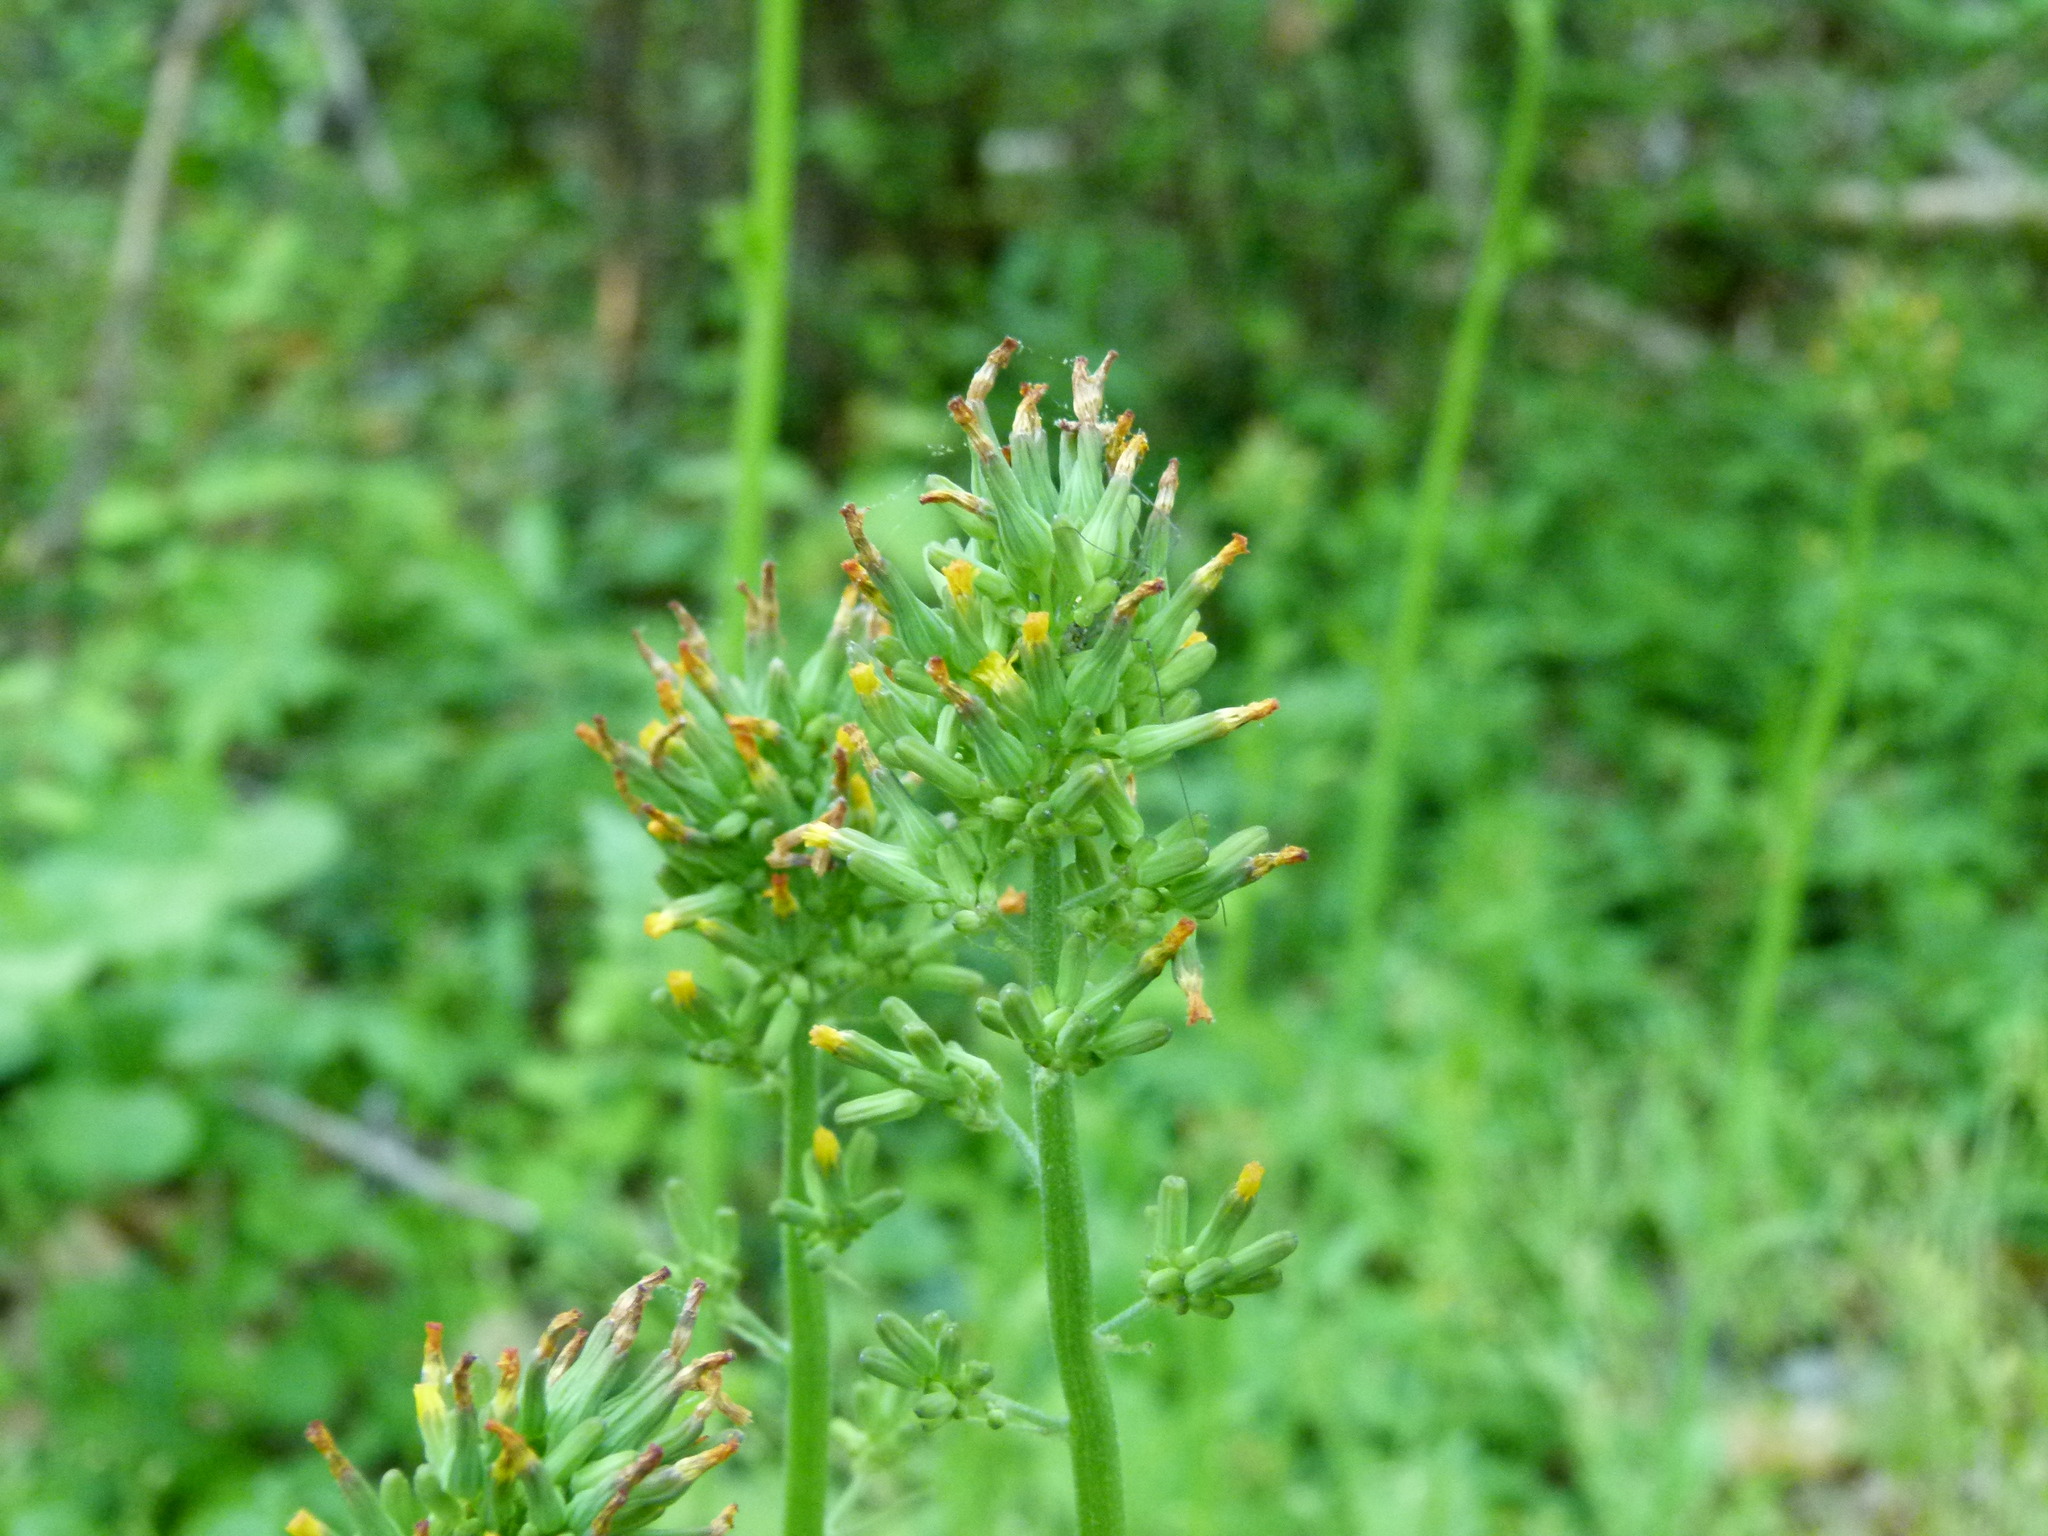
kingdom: Plantae
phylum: Tracheophyta
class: Magnoliopsida
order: Asterales
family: Asteraceae
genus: Youngia
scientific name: Youngia japonica
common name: Oriental false hawksbeard
